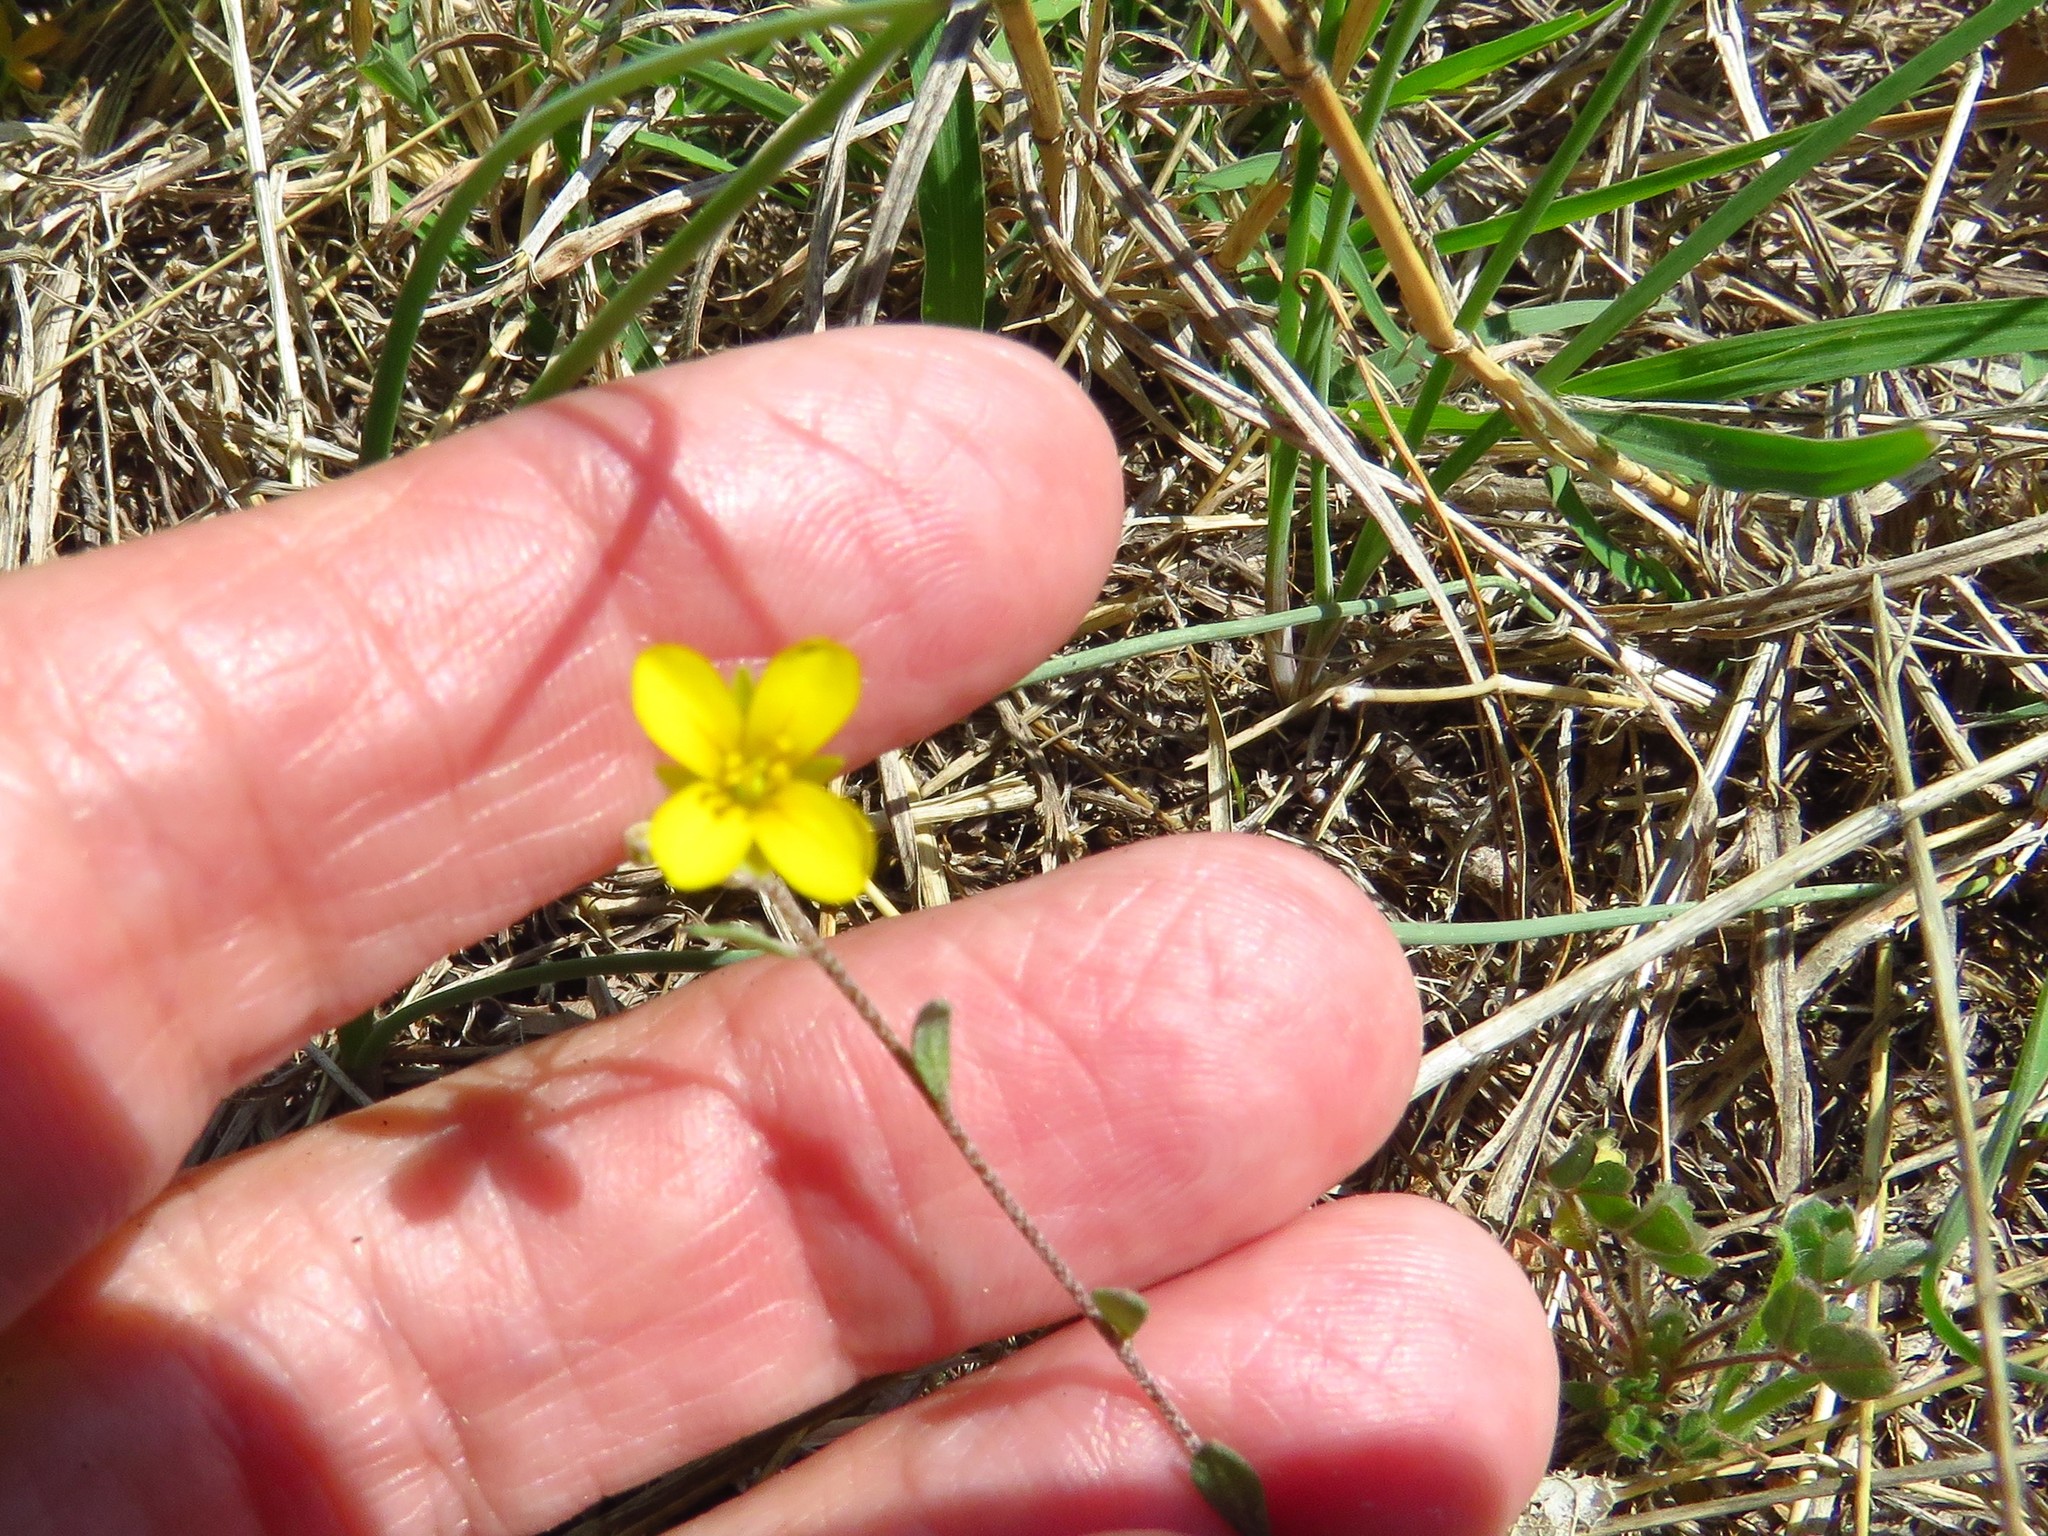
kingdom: Plantae
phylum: Tracheophyta
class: Magnoliopsida
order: Brassicales
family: Brassicaceae
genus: Physaria
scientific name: Physaria recurvata
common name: Gaslight bladderpod
